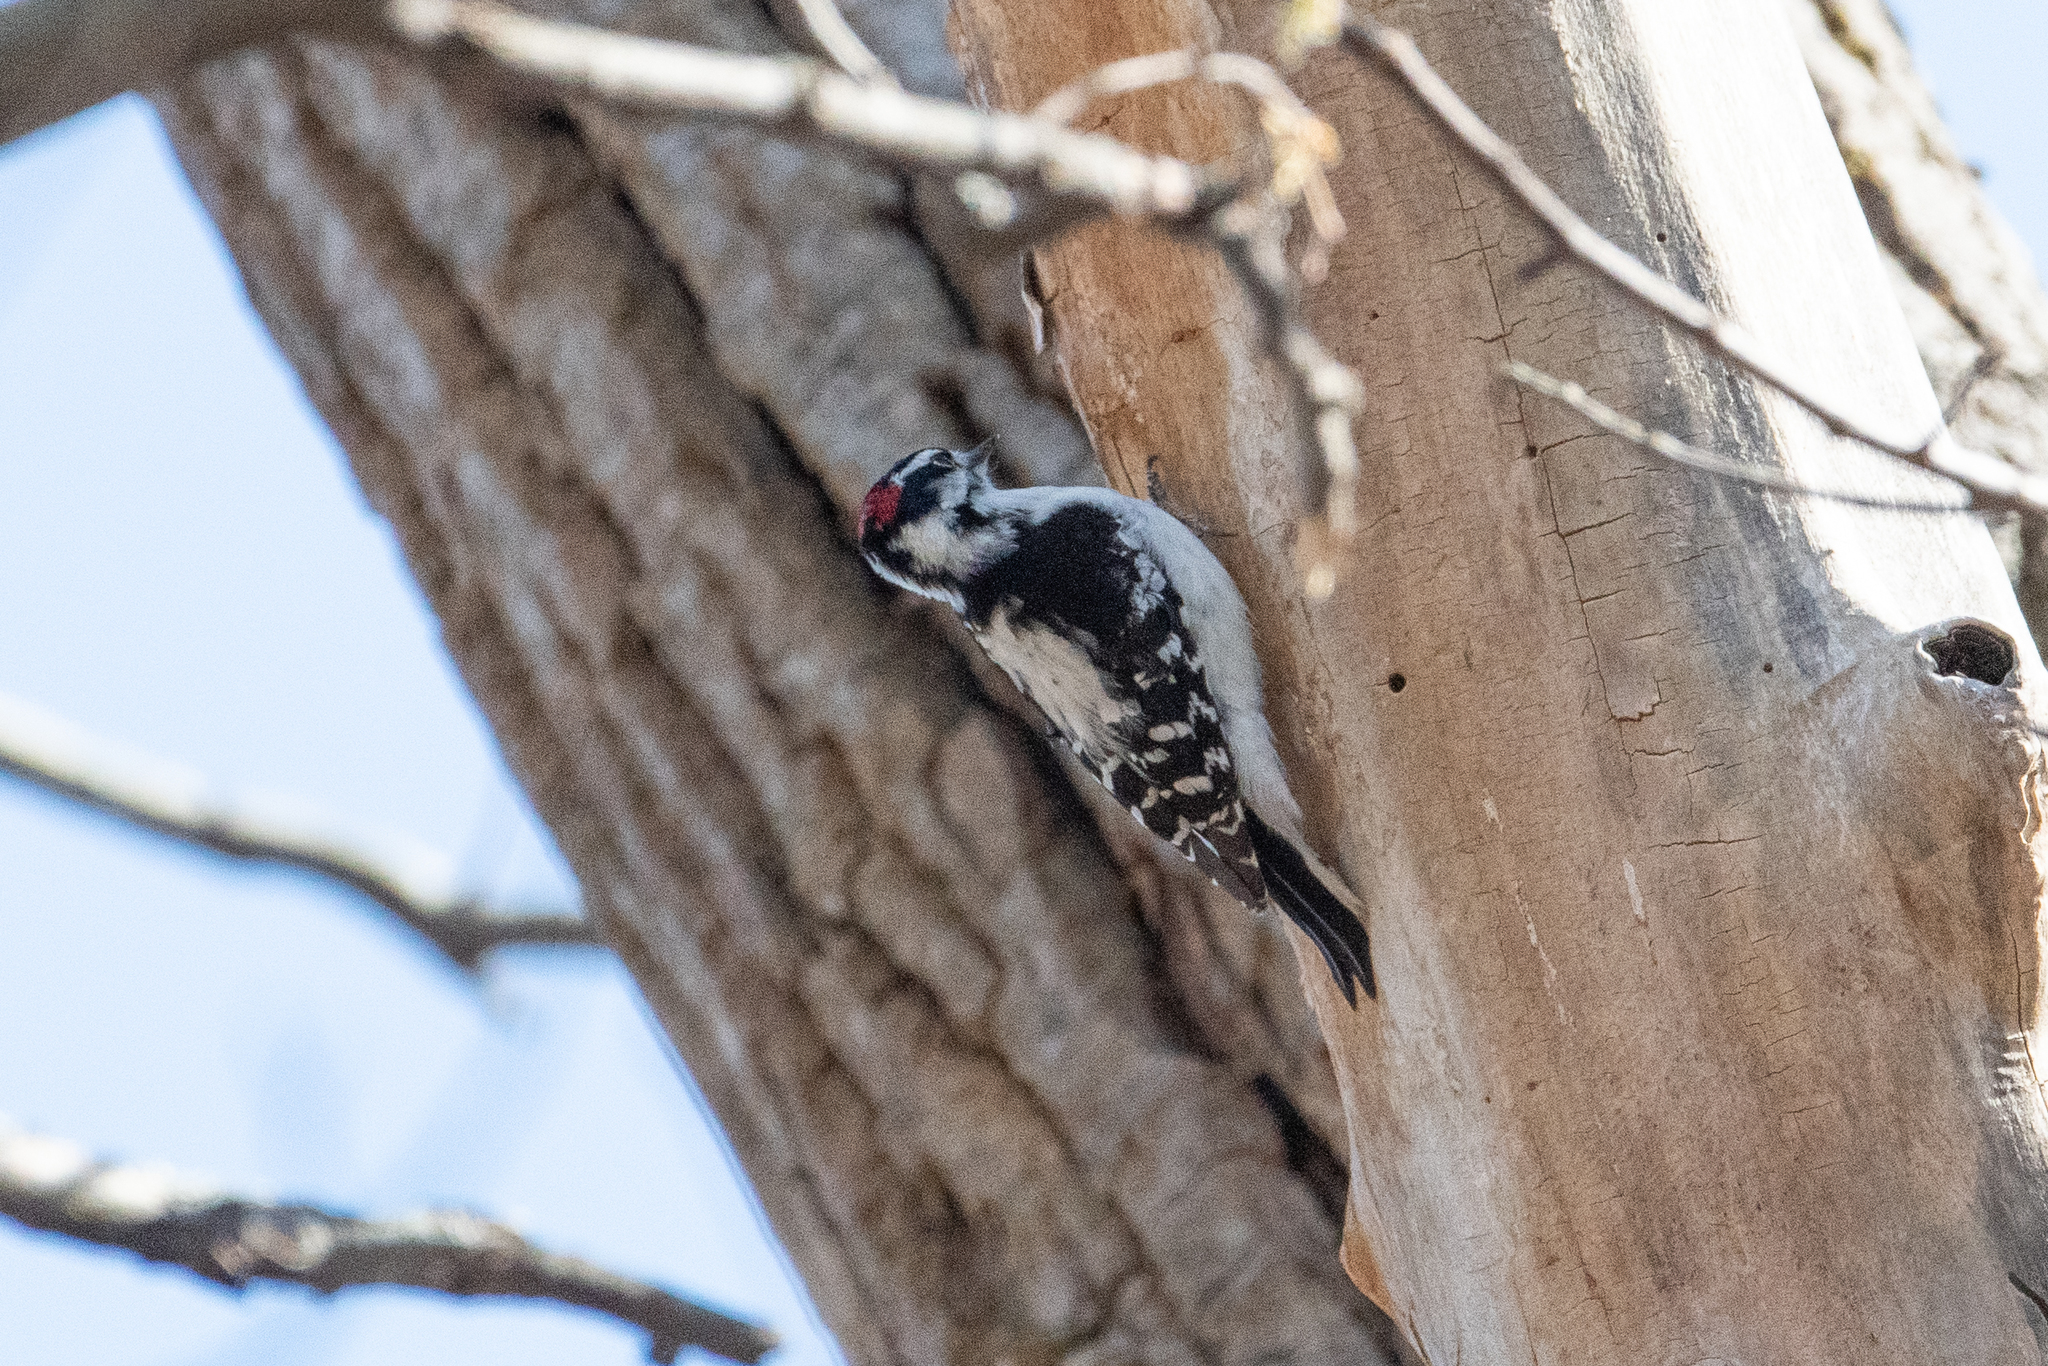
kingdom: Animalia
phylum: Chordata
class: Aves
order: Piciformes
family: Picidae
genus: Dryobates
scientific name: Dryobates pubescens
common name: Downy woodpecker
